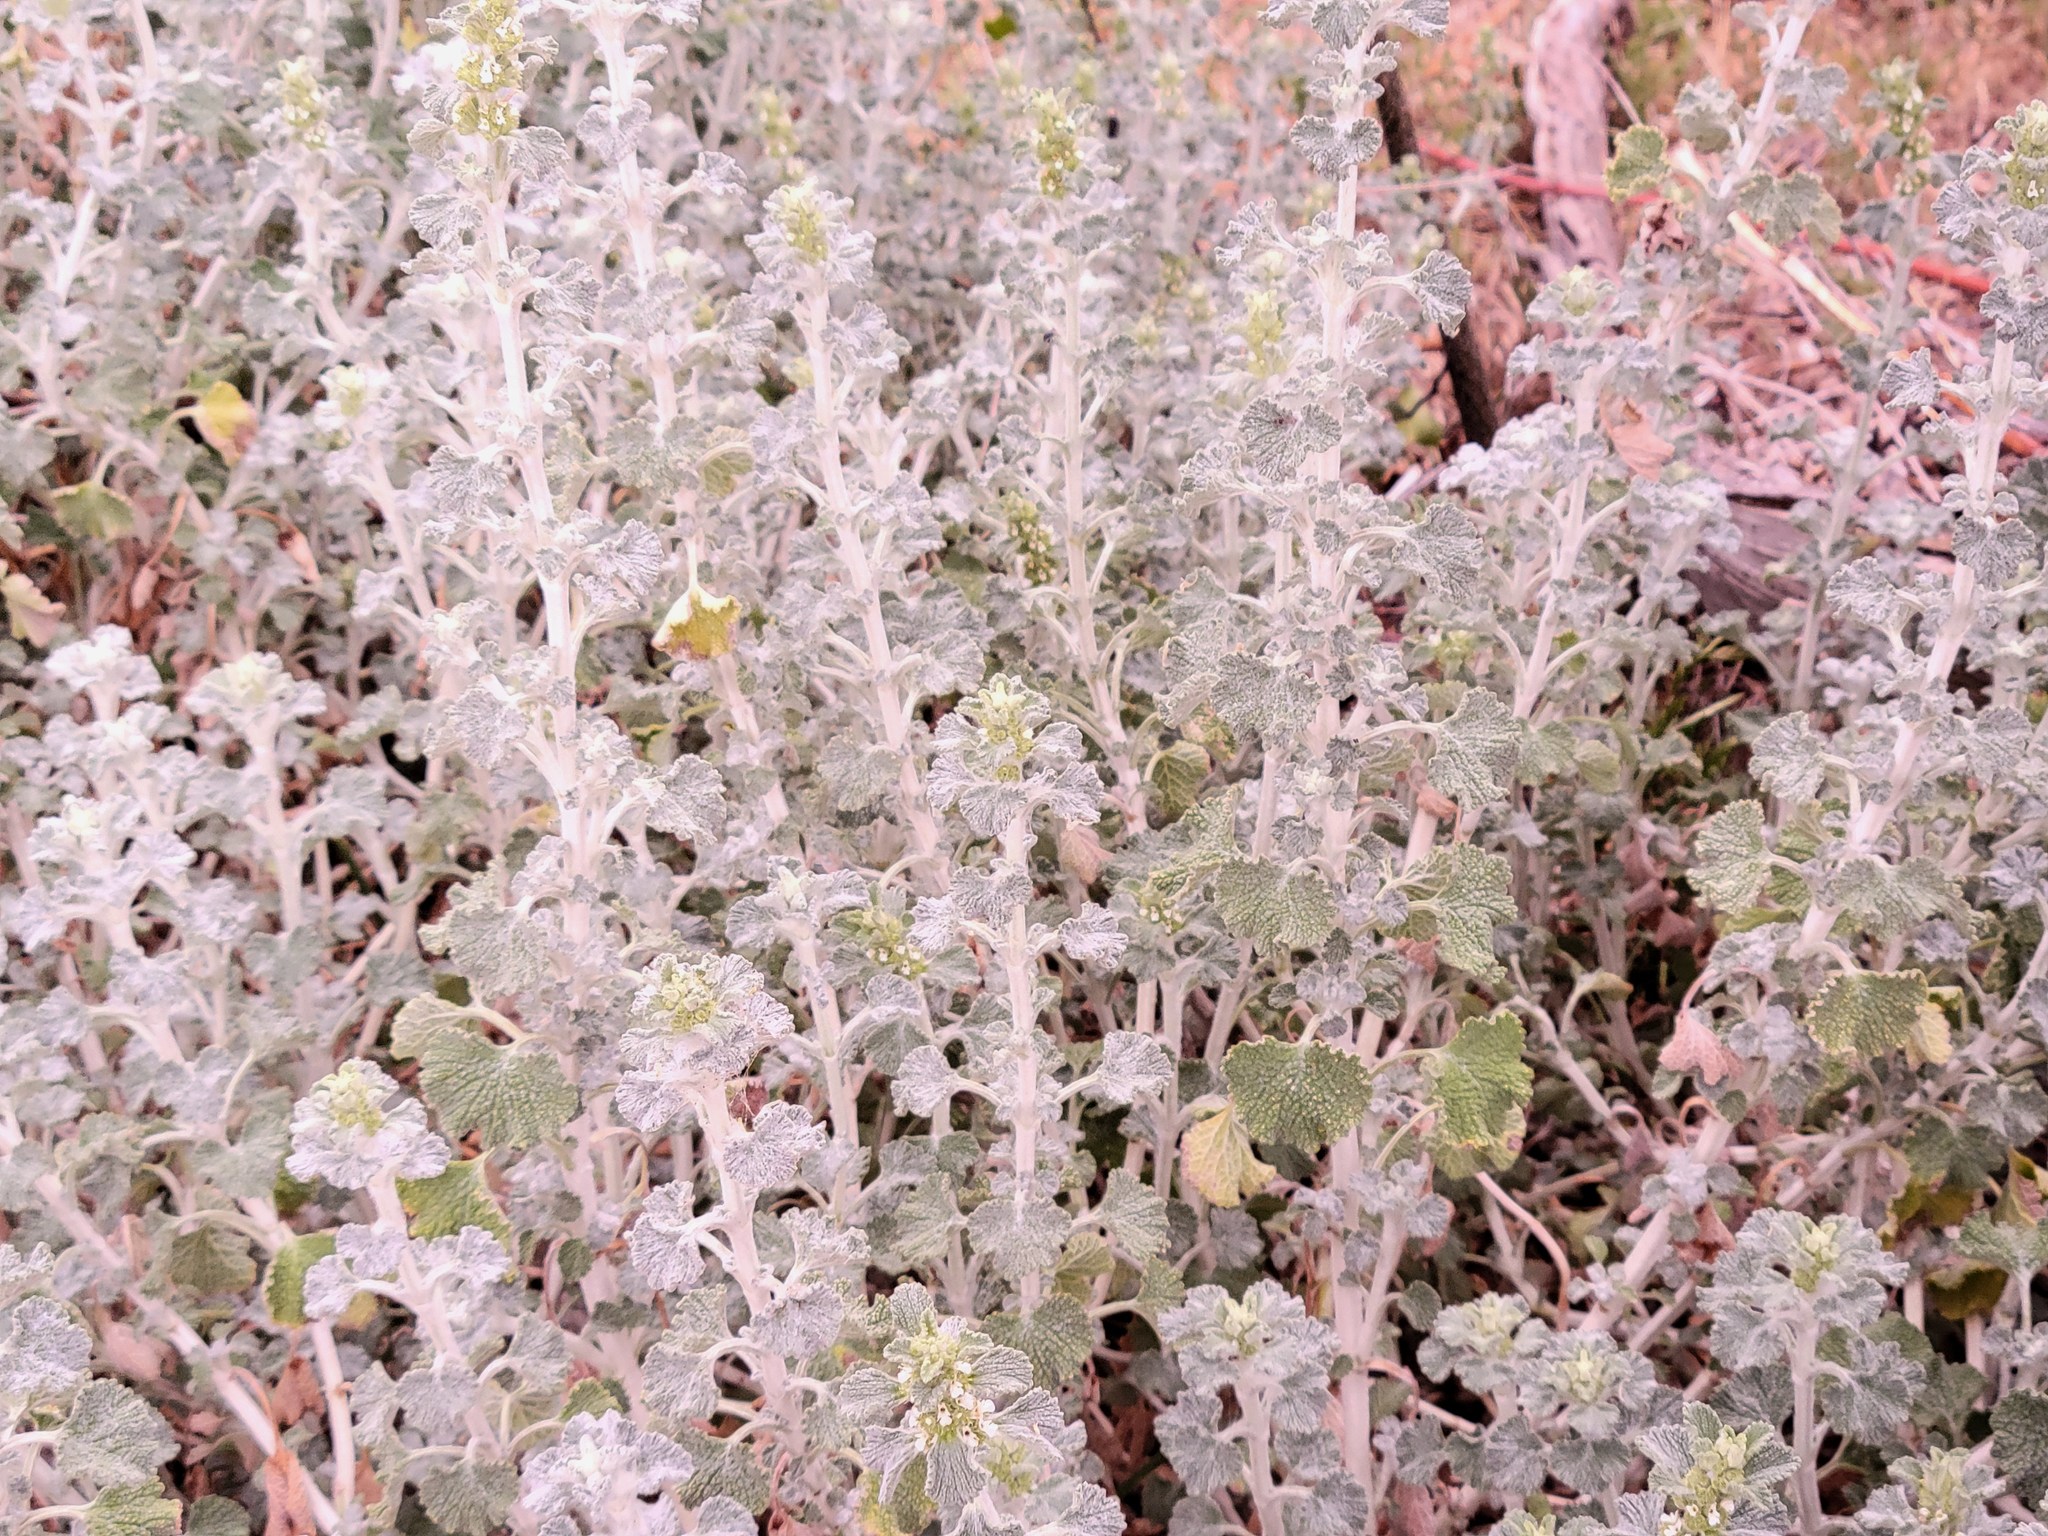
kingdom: Plantae
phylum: Tracheophyta
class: Magnoliopsida
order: Lamiales
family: Lamiaceae
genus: Marrubium
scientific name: Marrubium vulgare
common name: Horehound
